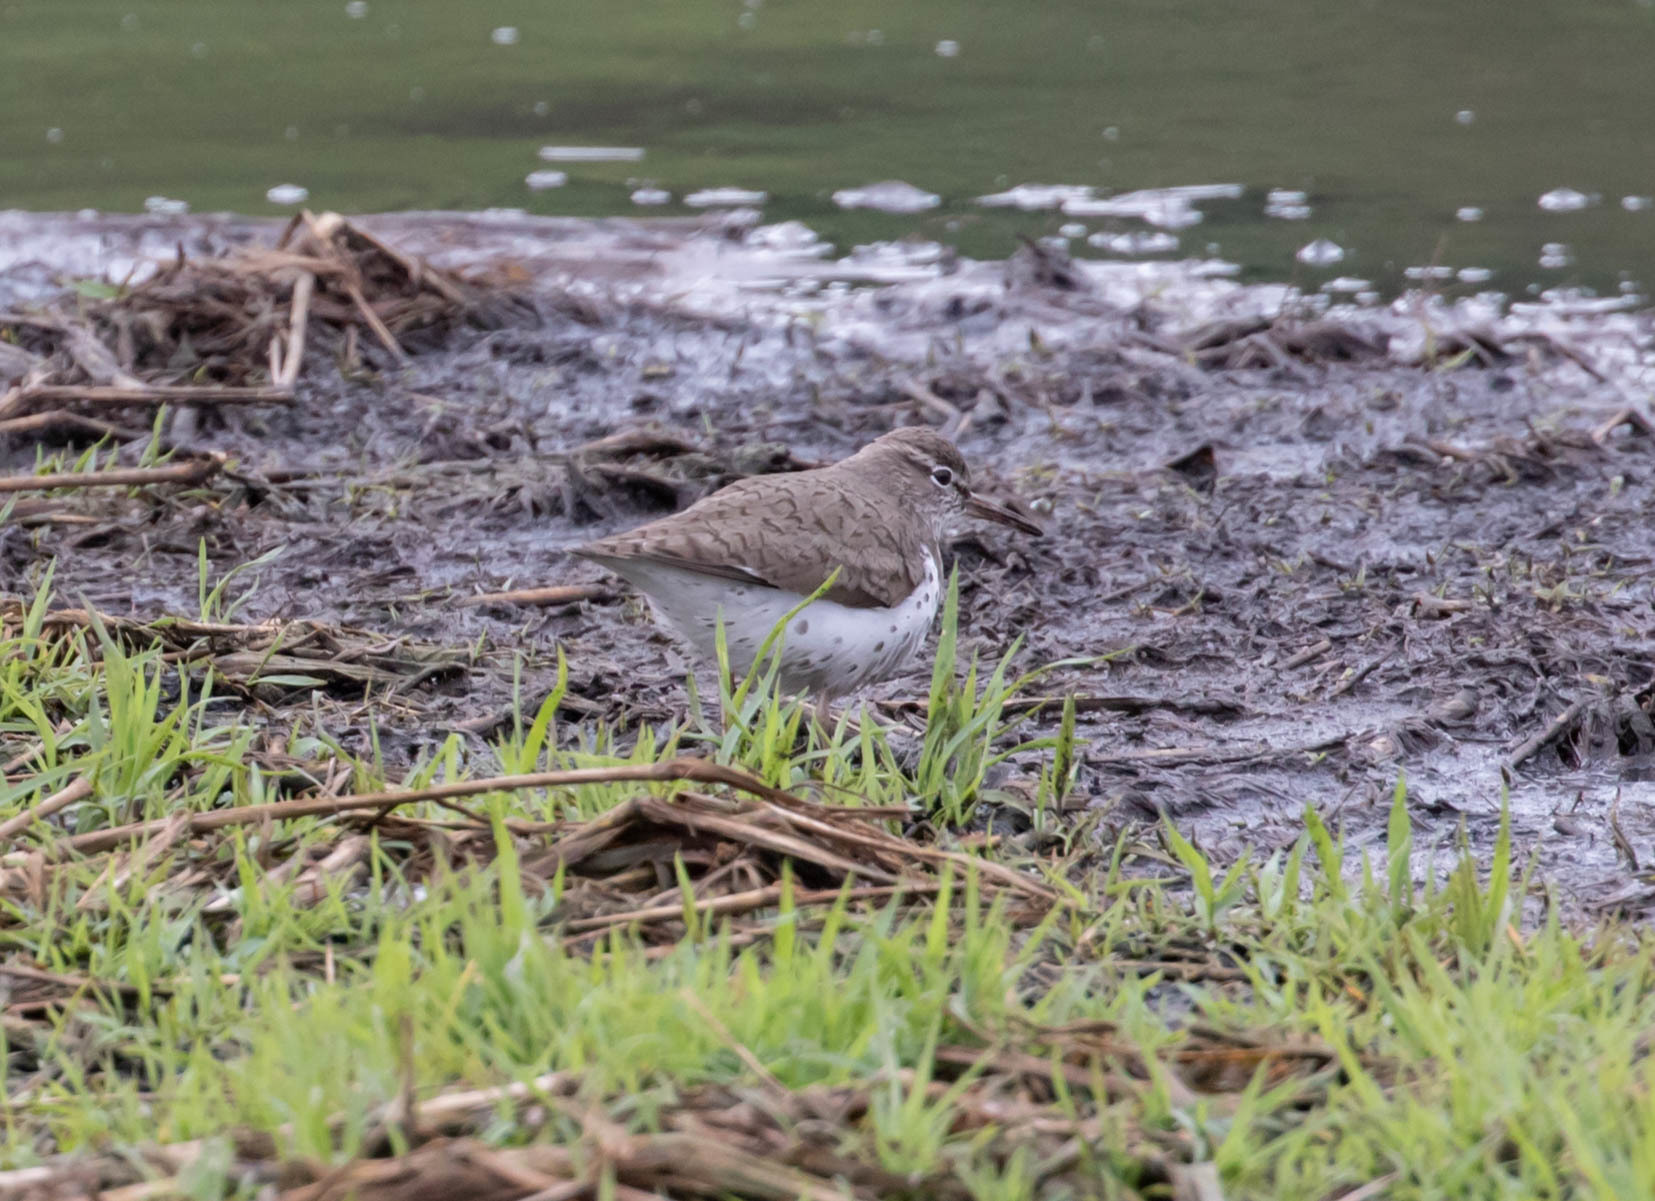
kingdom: Animalia
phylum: Chordata
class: Aves
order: Charadriiformes
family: Scolopacidae
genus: Actitis
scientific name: Actitis macularius
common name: Spotted sandpiper
